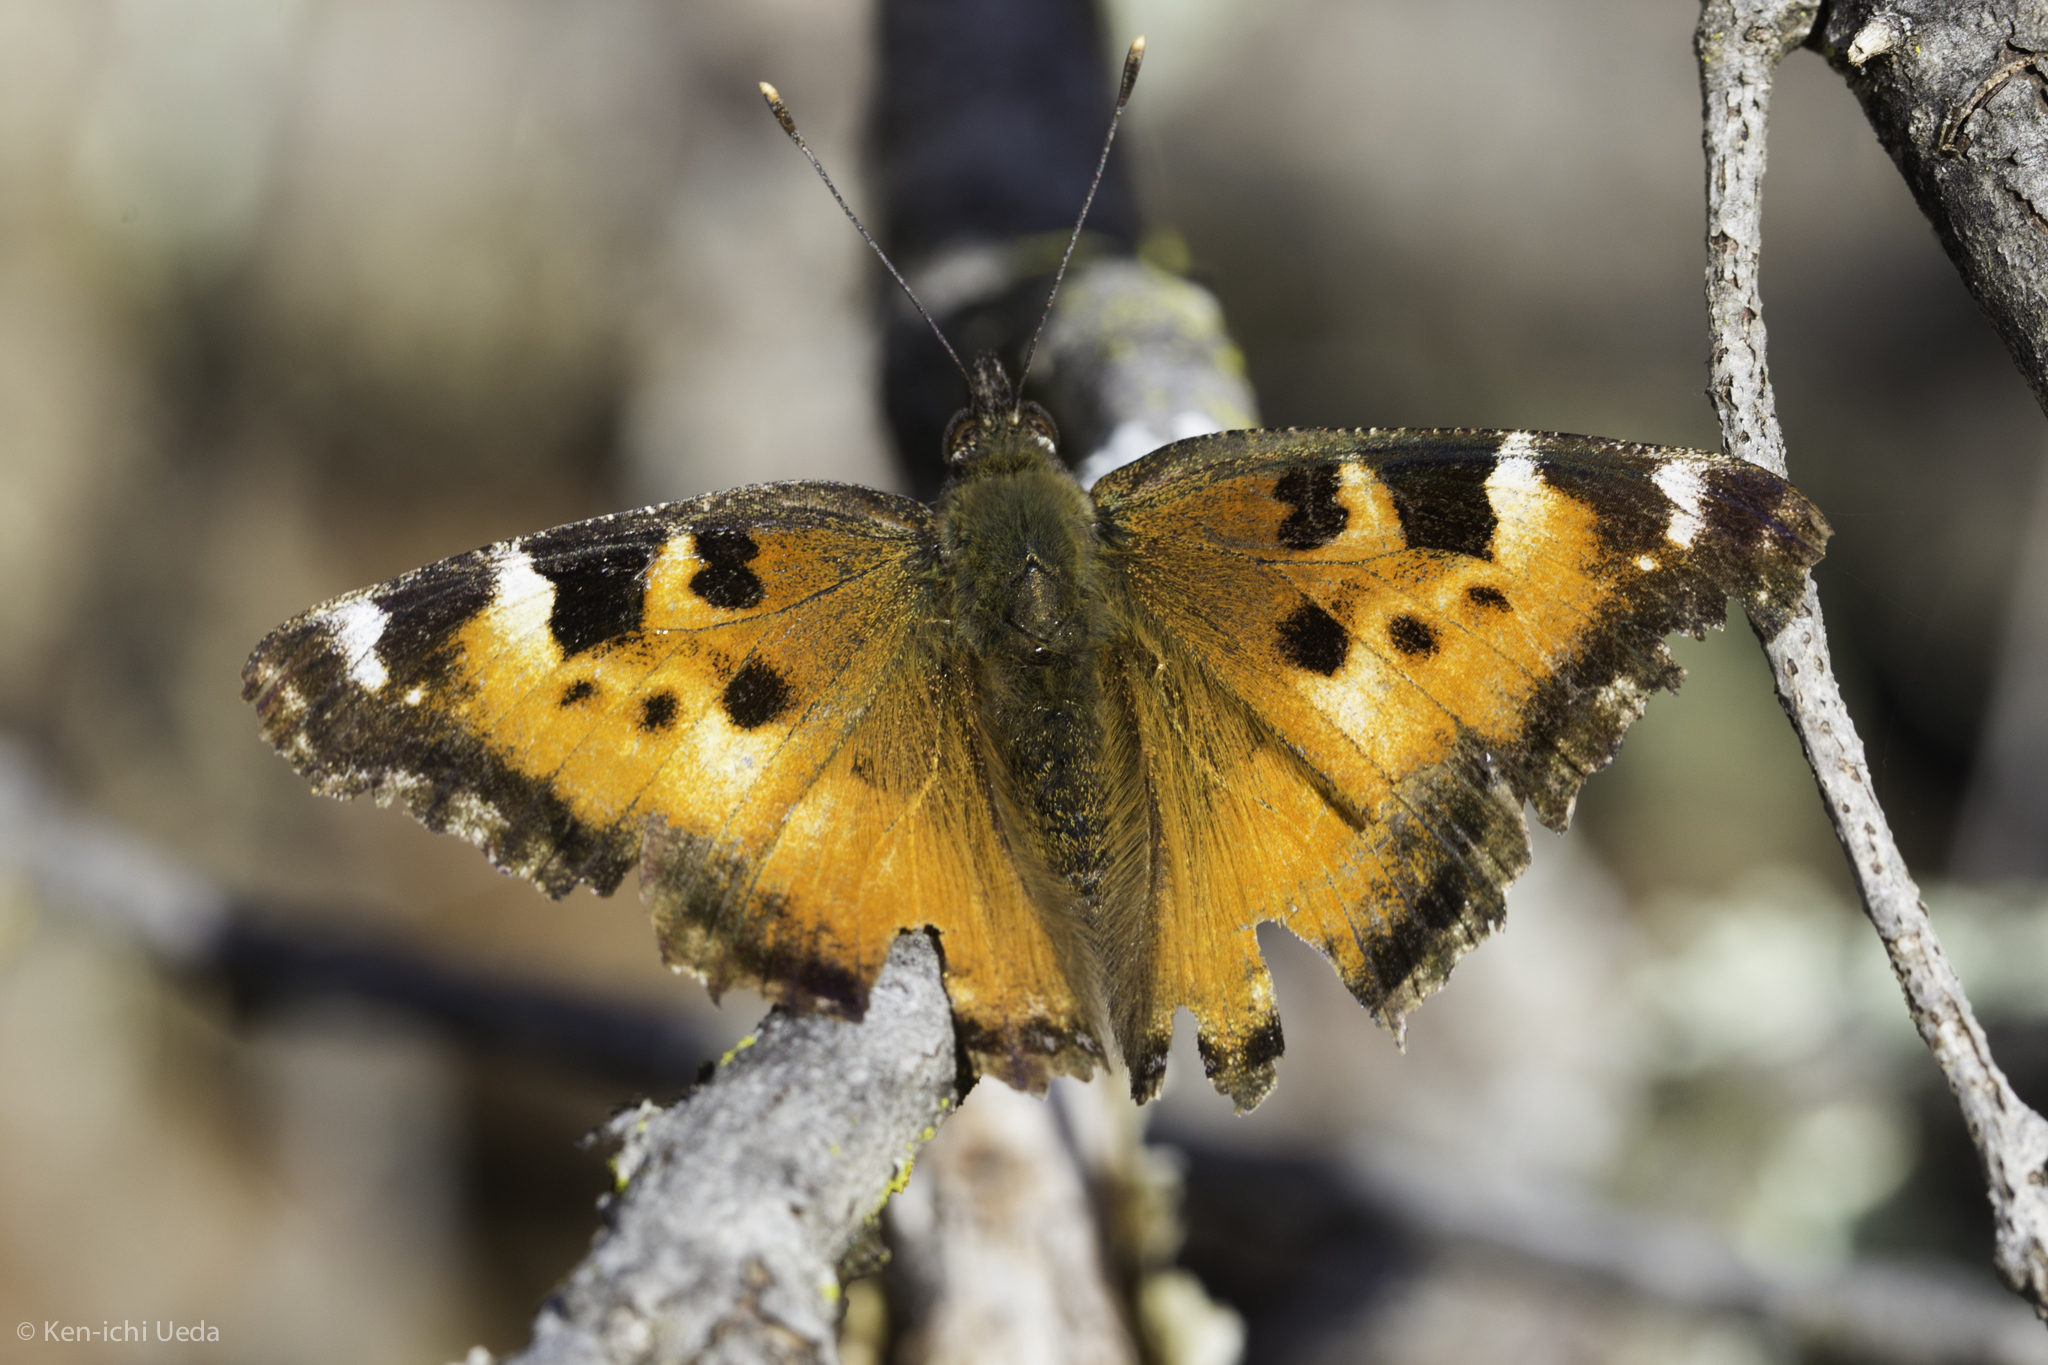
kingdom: Animalia
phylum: Arthropoda
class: Insecta
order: Lepidoptera
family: Nymphalidae
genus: Nymphalis
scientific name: Nymphalis californica
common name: California tortoiseshell
